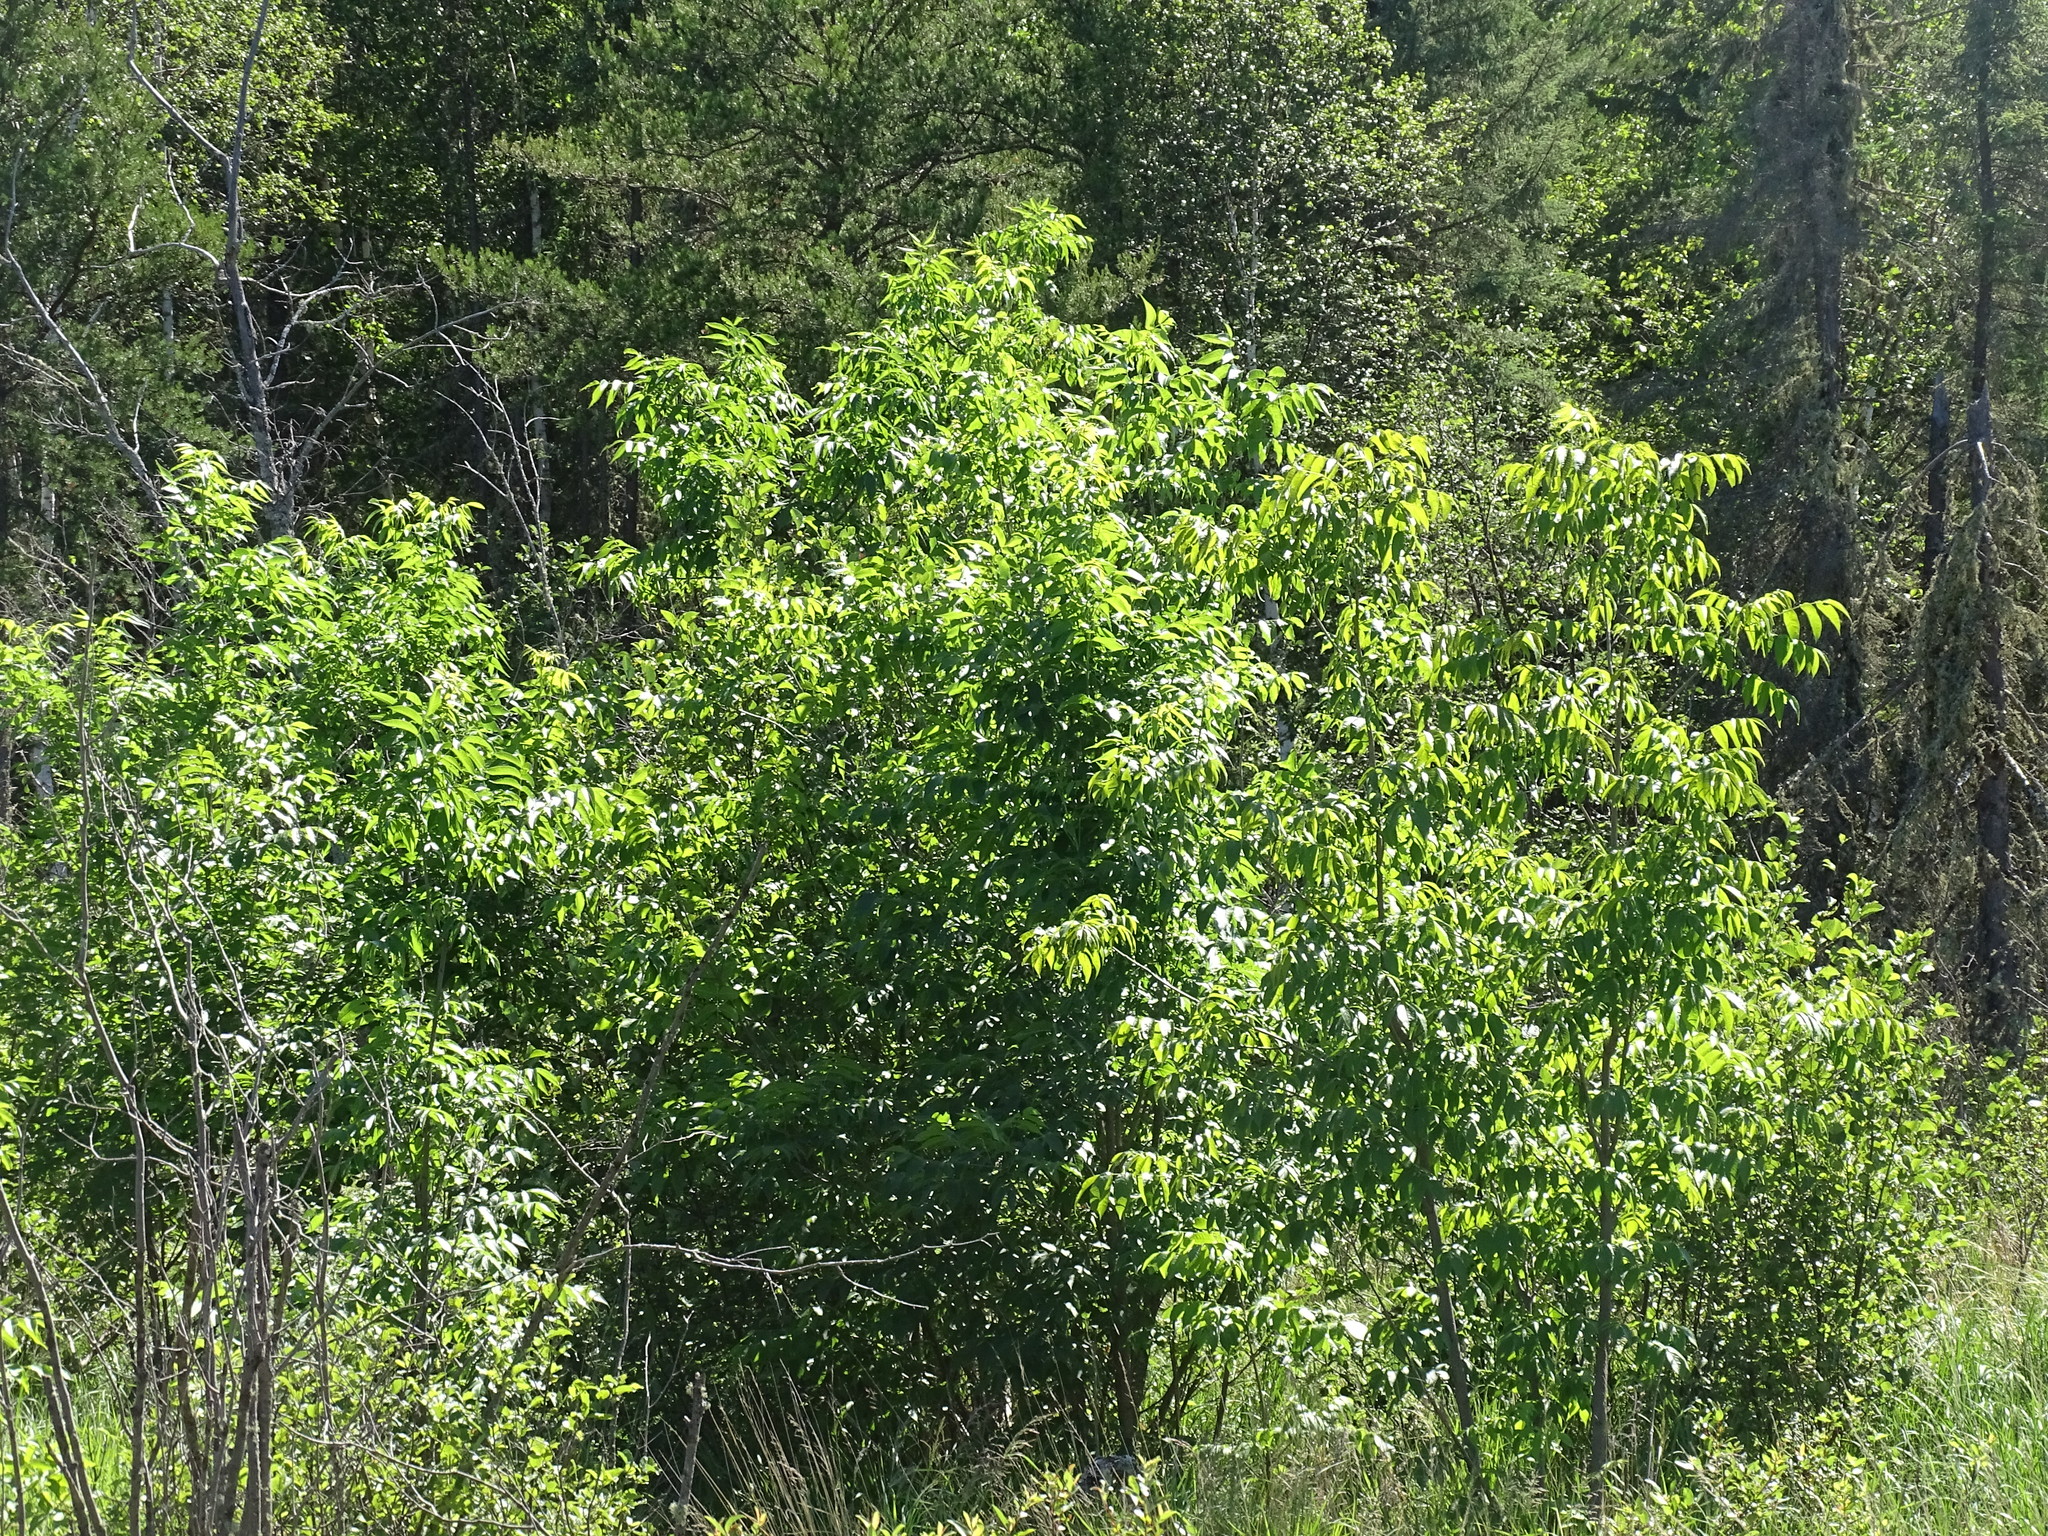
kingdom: Plantae
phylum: Tracheophyta
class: Magnoliopsida
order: Lamiales
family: Oleaceae
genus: Fraxinus
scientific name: Fraxinus nigra
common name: Black ash
